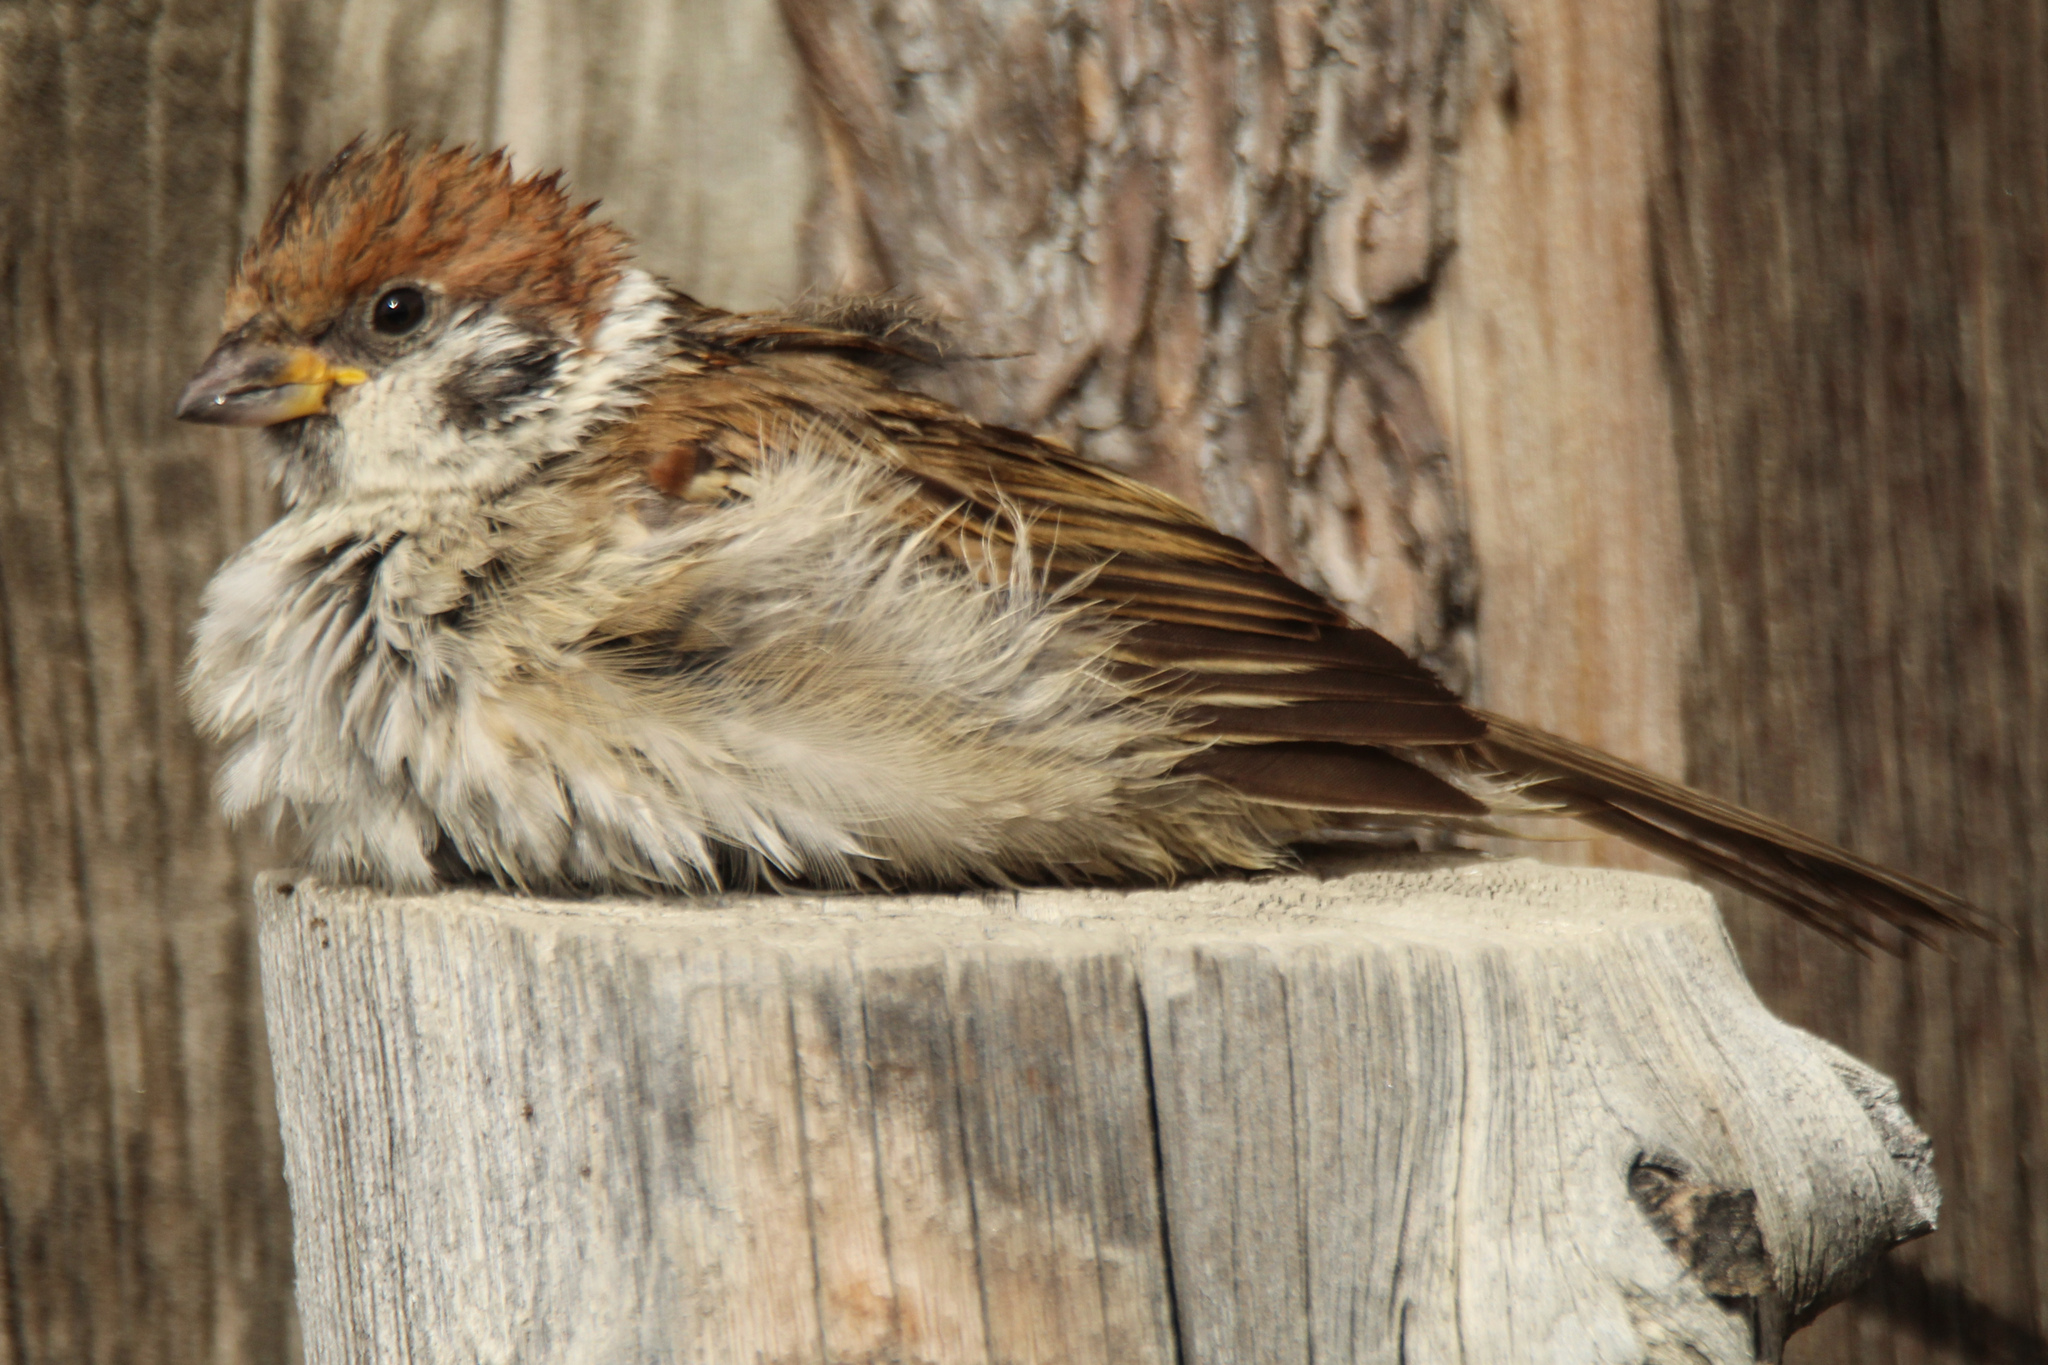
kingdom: Animalia
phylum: Chordata
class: Aves
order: Passeriformes
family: Passeridae
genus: Passer
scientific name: Passer montanus
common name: Eurasian tree sparrow
